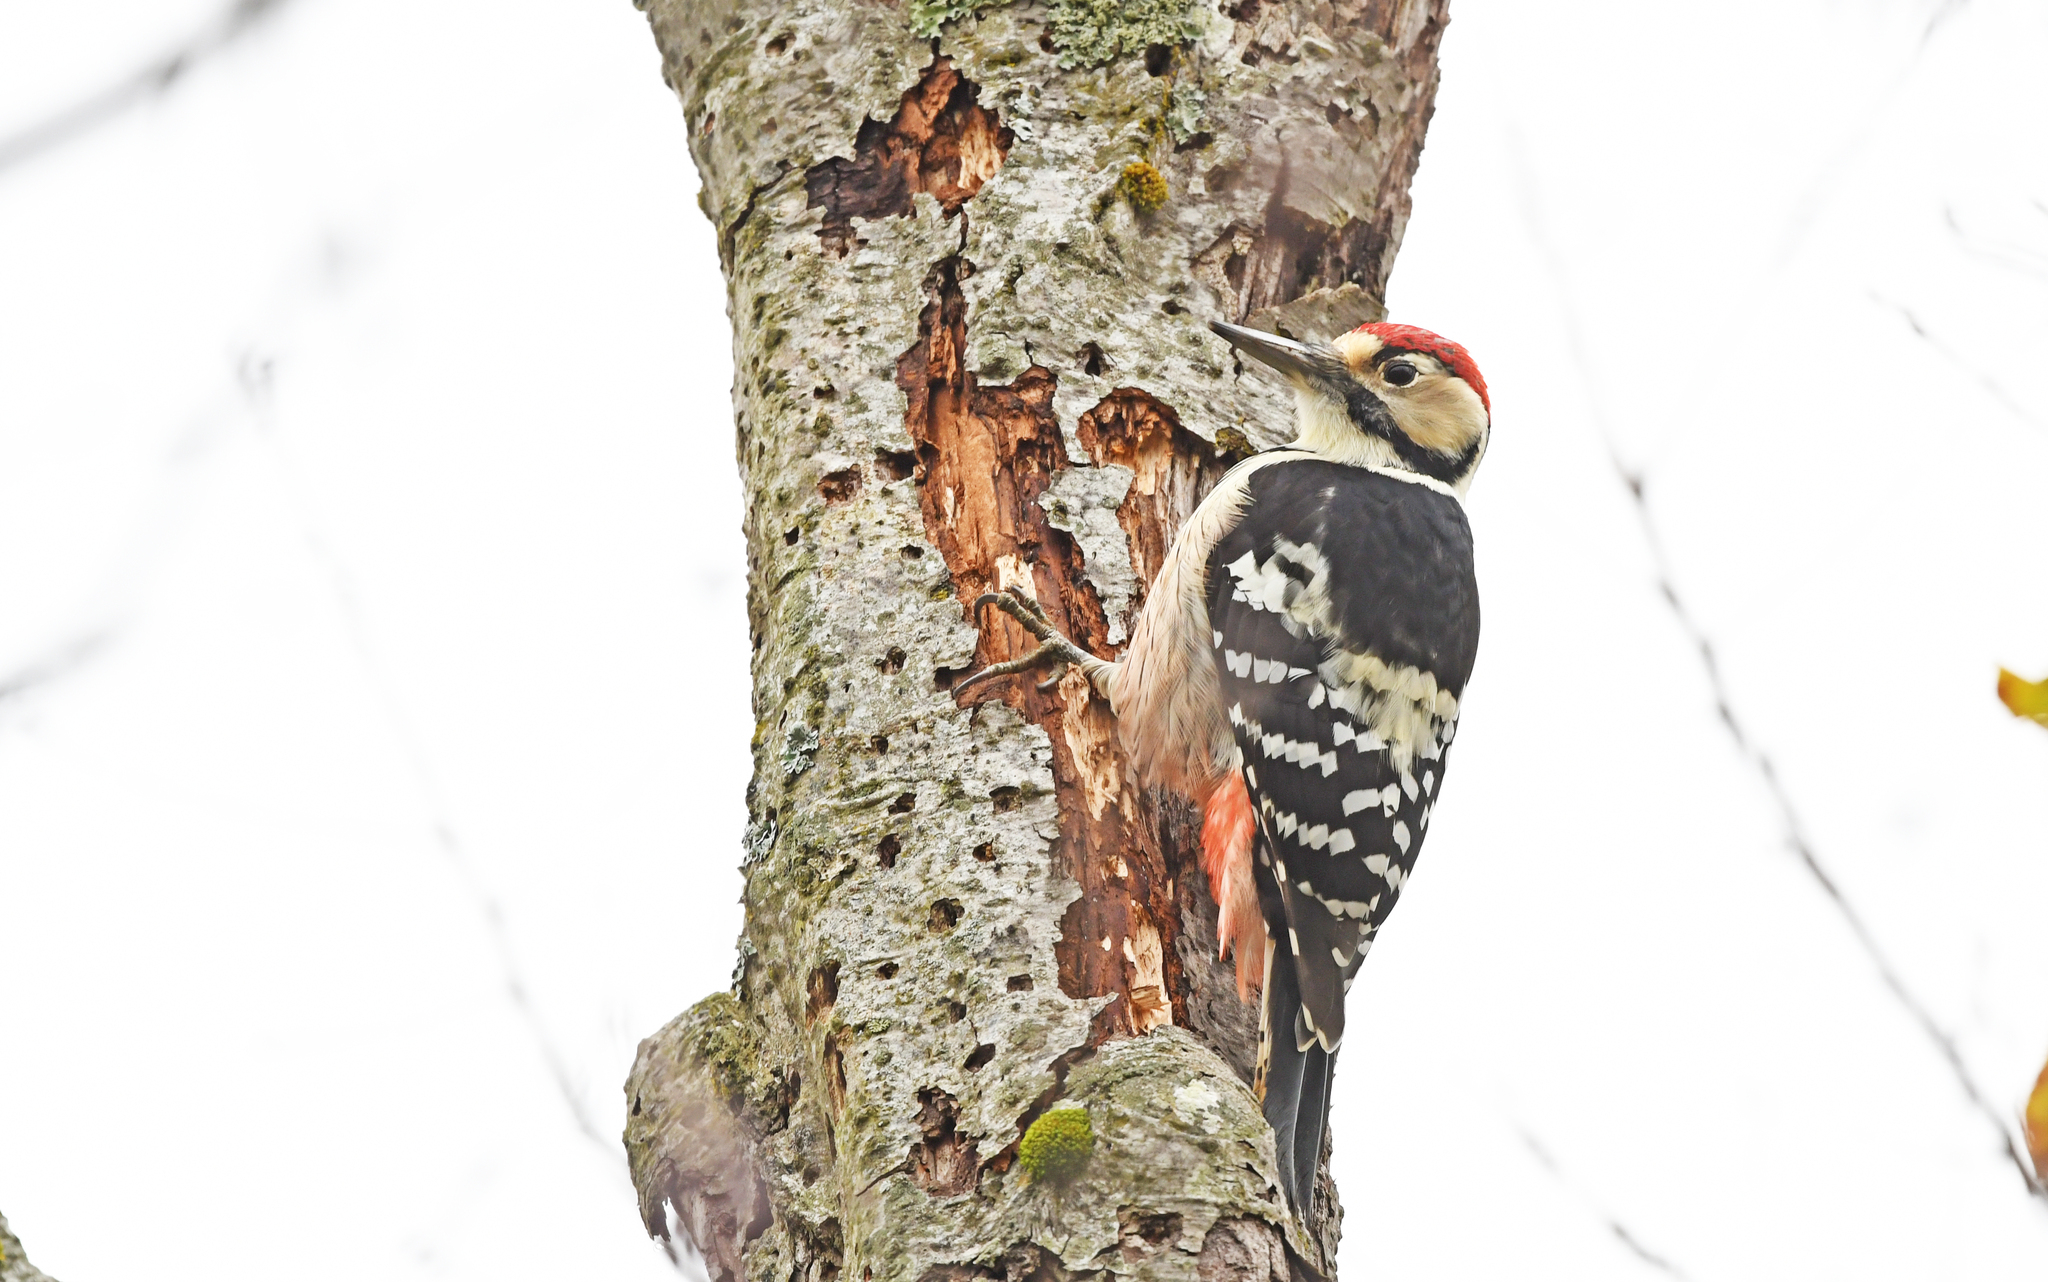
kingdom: Animalia
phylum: Chordata
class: Aves
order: Piciformes
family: Picidae
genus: Dendrocopos
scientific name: Dendrocopos leucotos
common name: White-backed woodpecker
